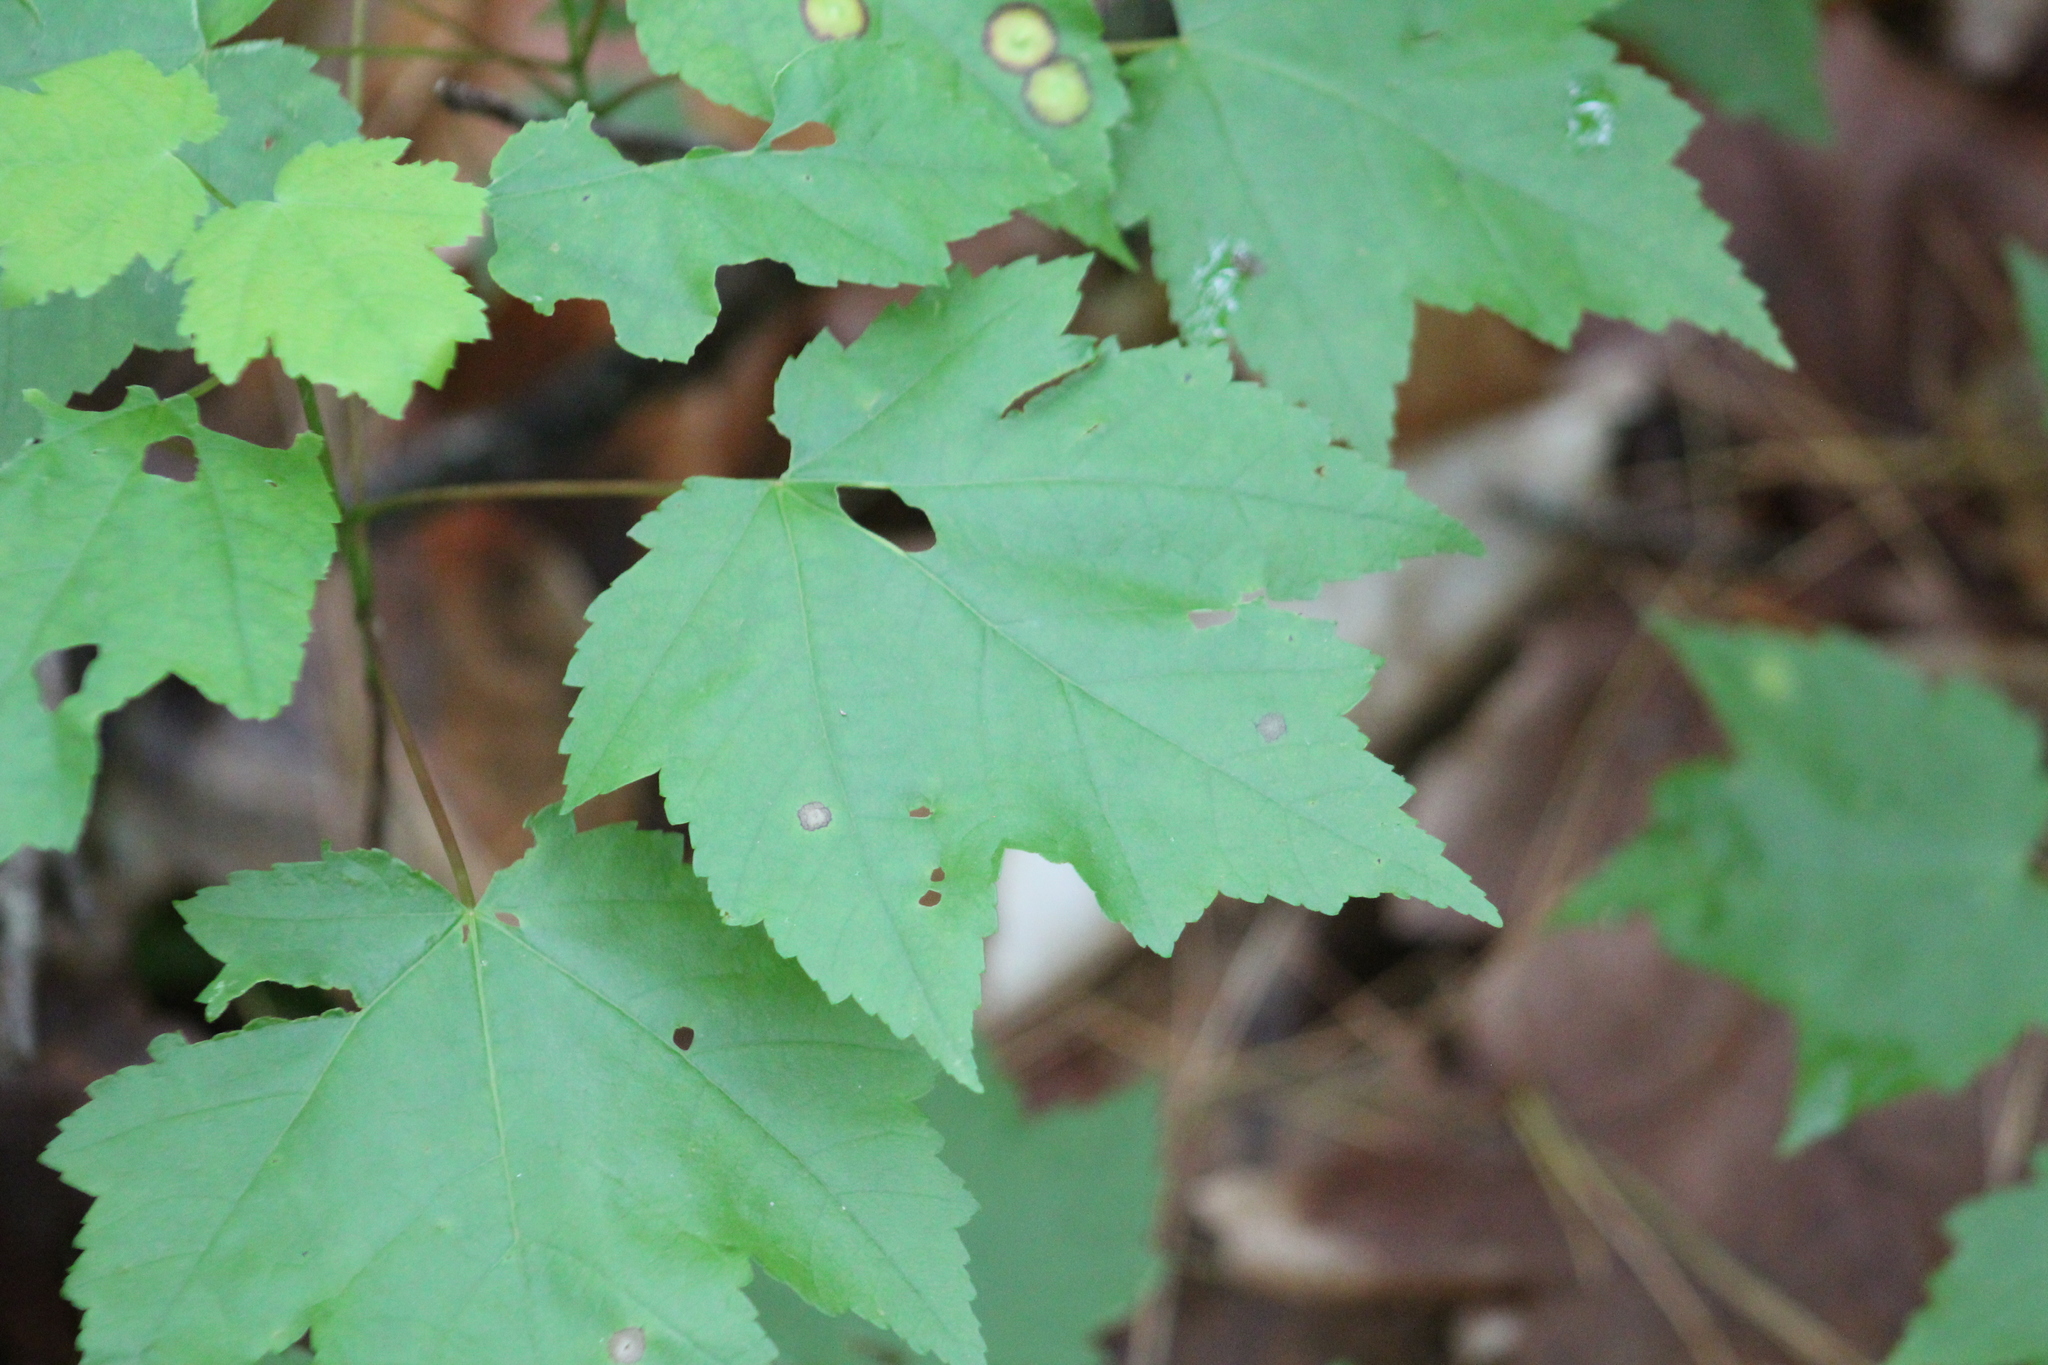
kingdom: Plantae
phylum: Tracheophyta
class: Magnoliopsida
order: Sapindales
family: Sapindaceae
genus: Acer
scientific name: Acer rubrum
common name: Red maple
